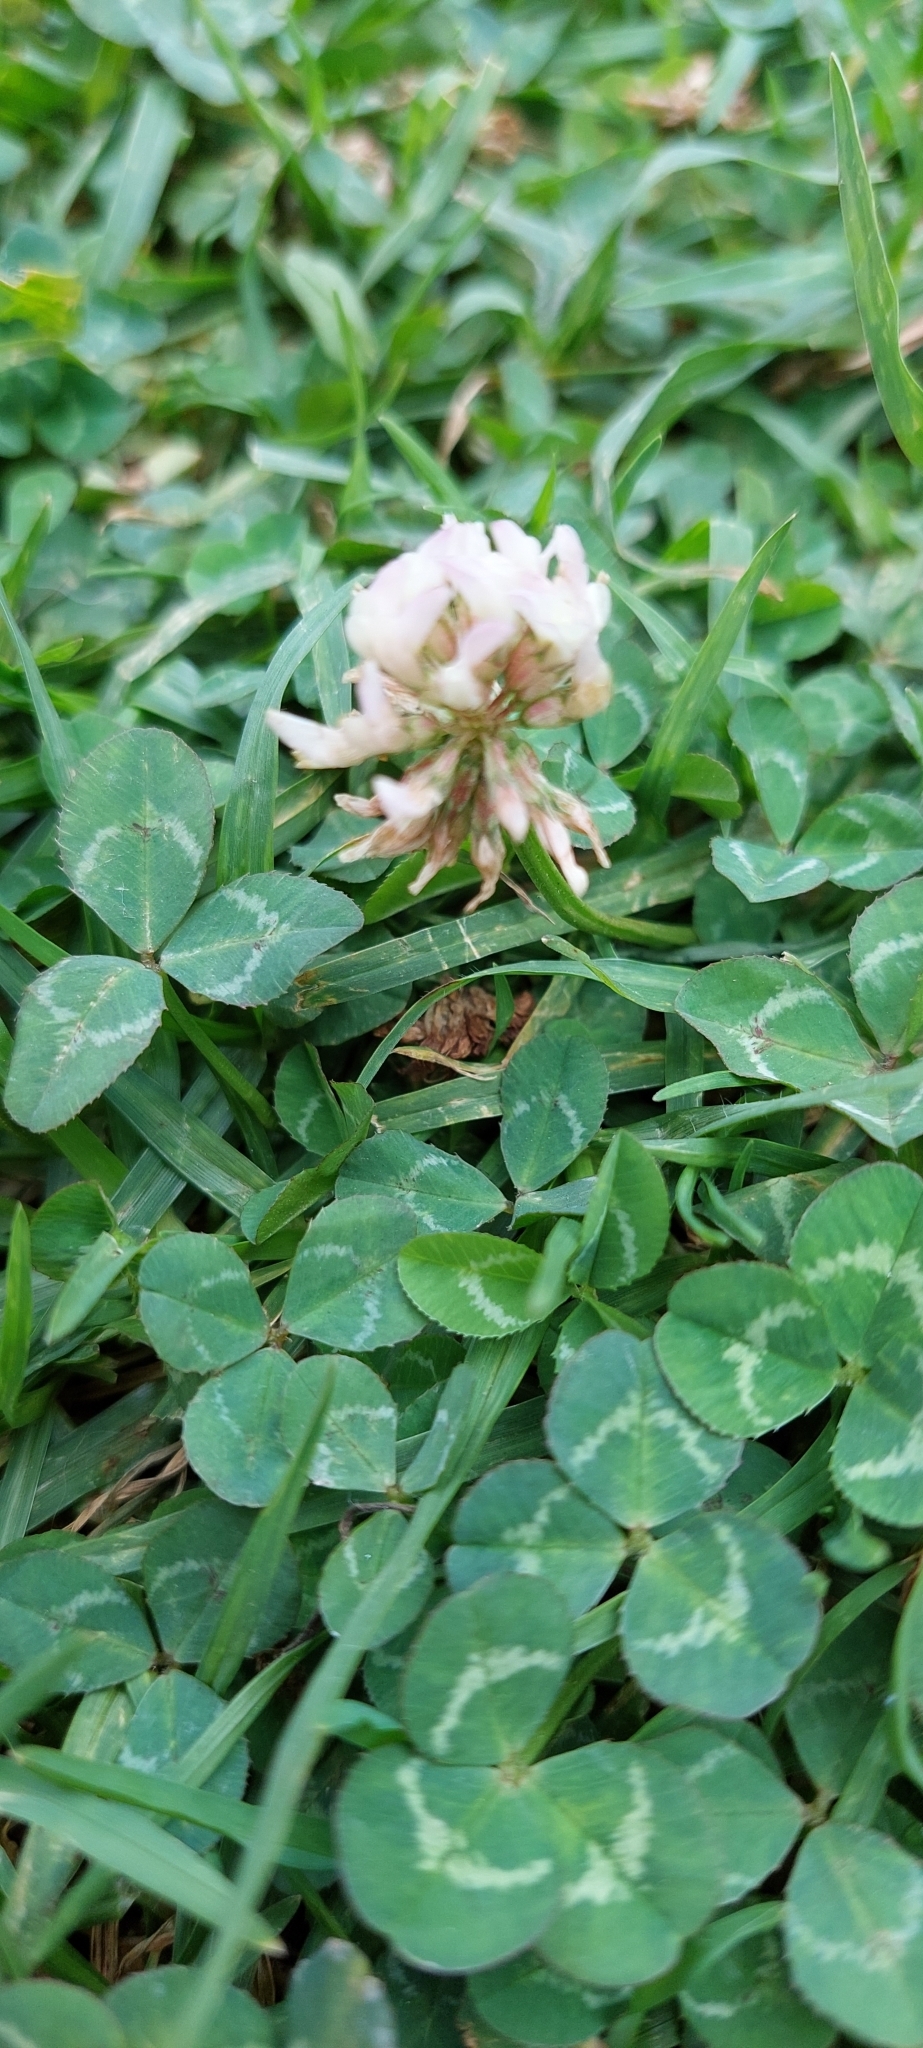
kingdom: Plantae
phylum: Tracheophyta
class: Magnoliopsida
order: Fabales
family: Fabaceae
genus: Trifolium
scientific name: Trifolium repens
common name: White clover
